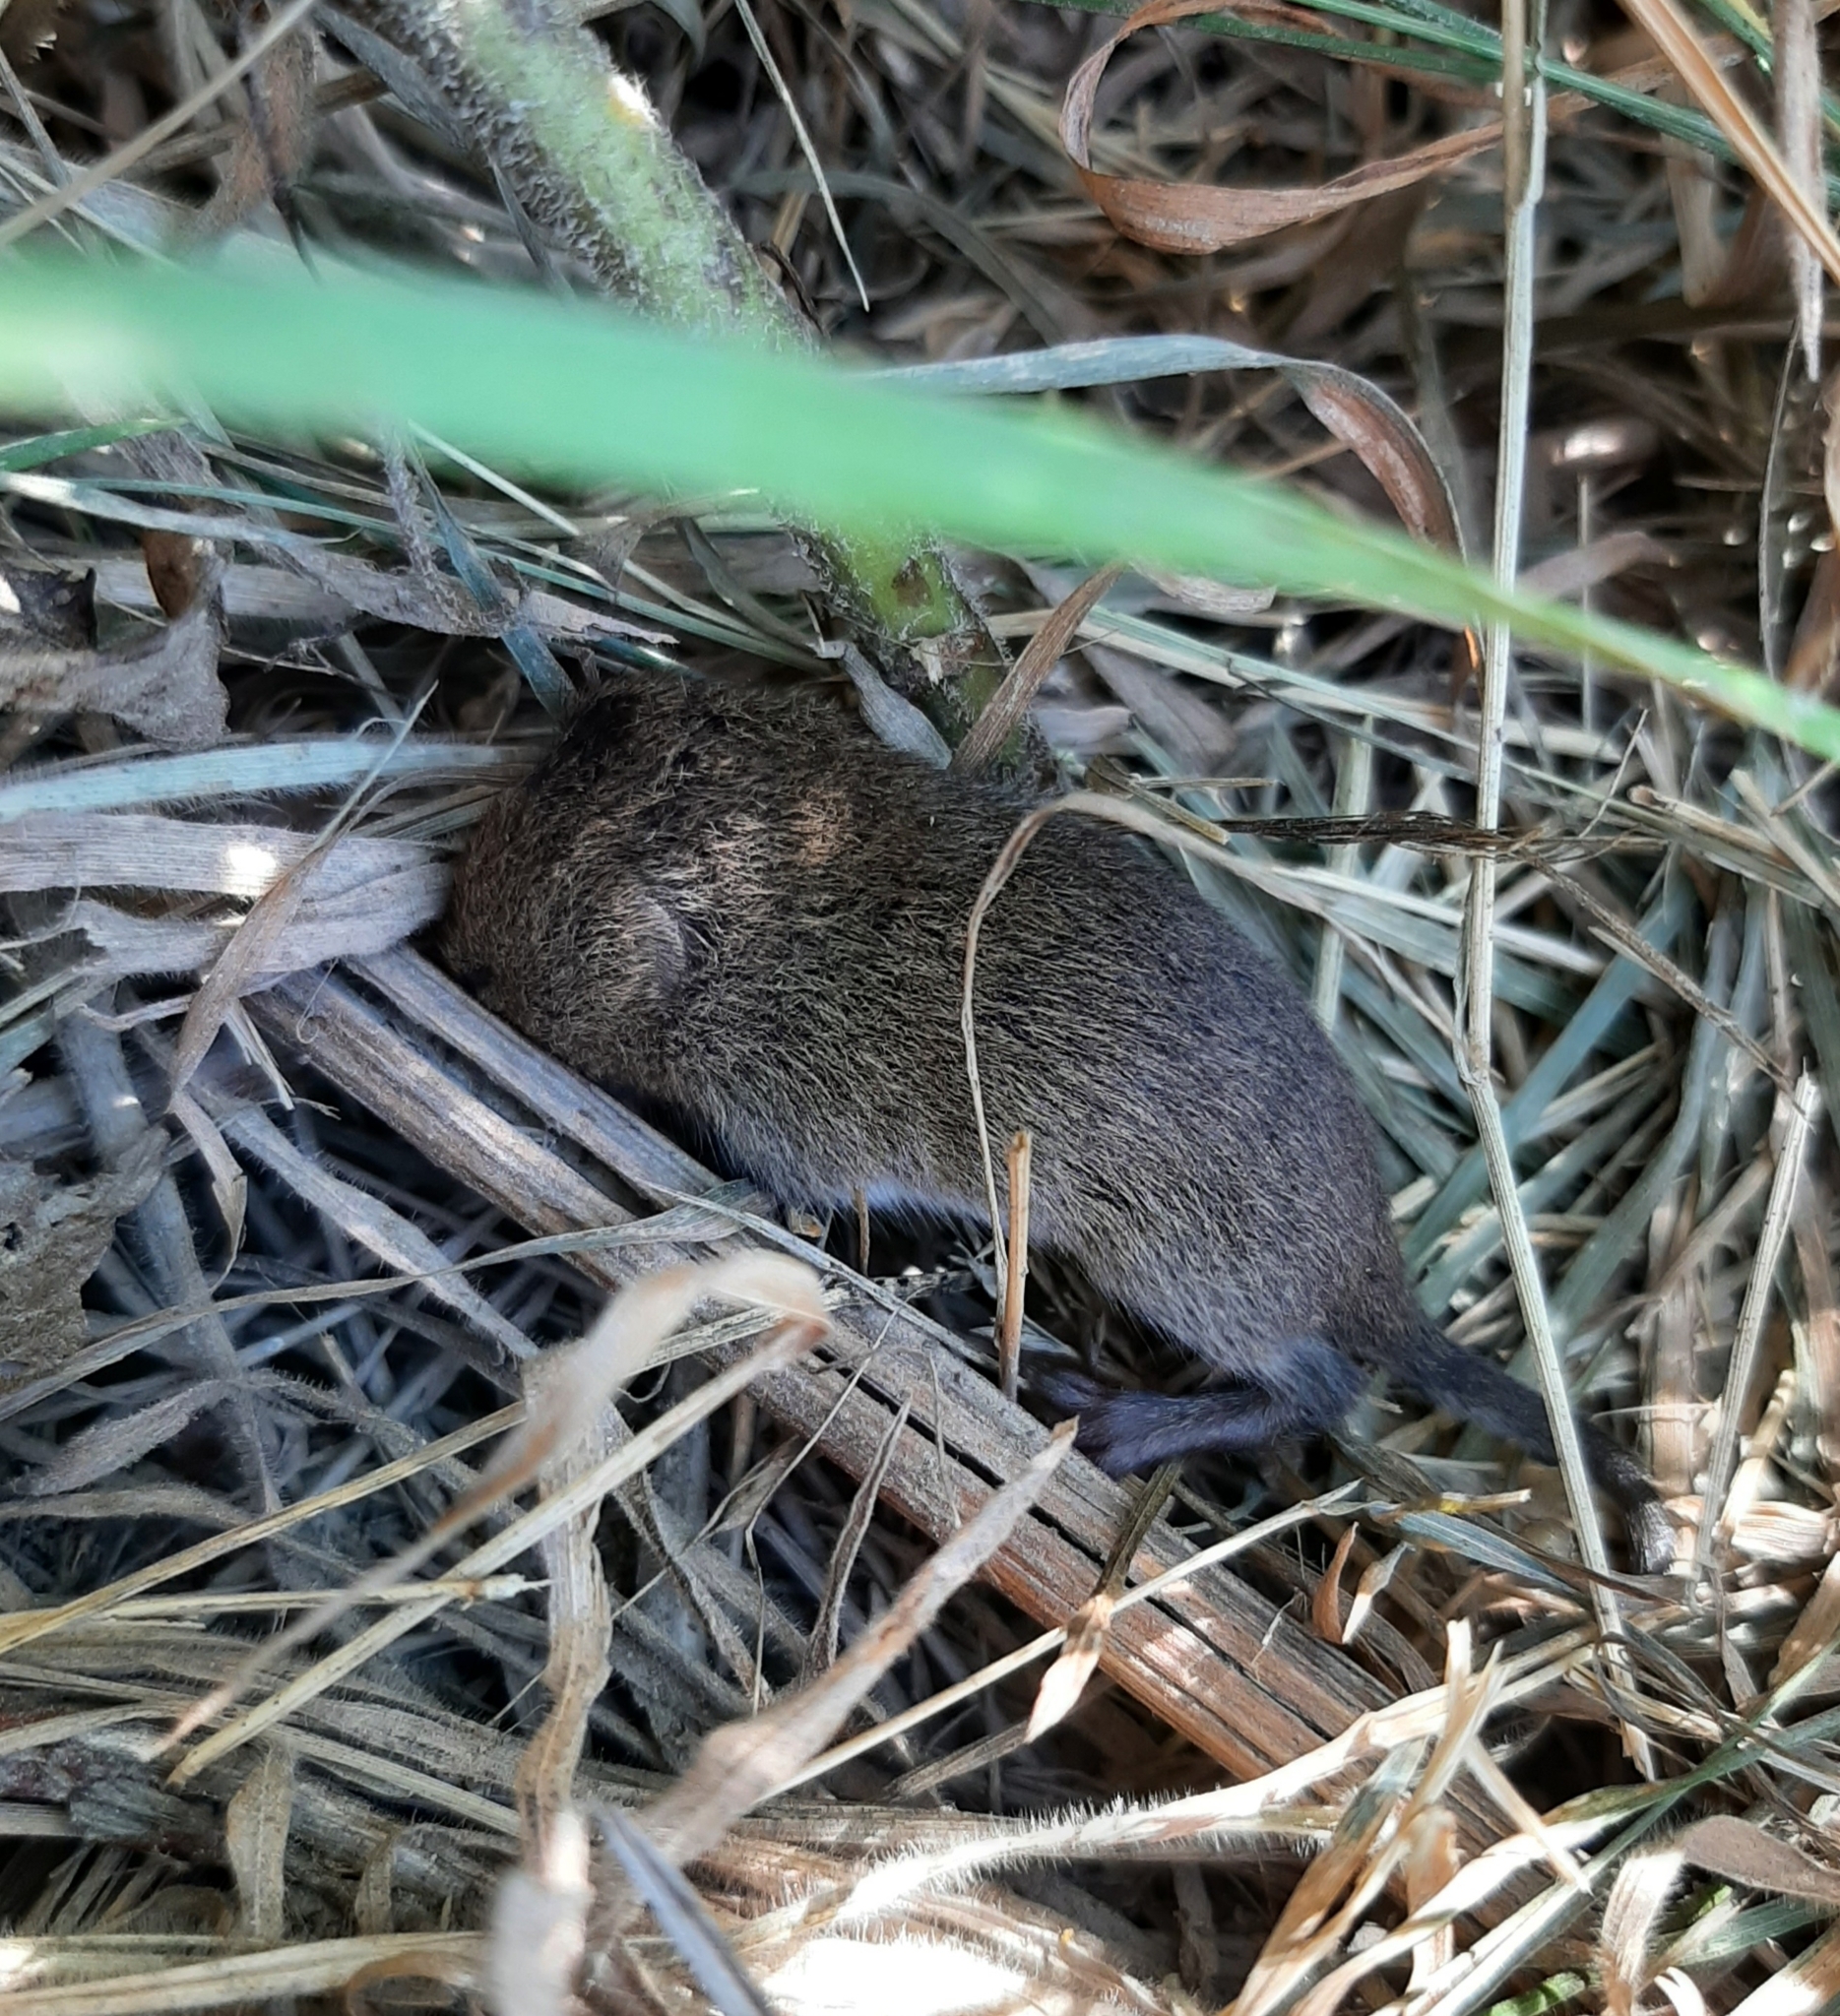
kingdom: Animalia
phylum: Chordata
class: Mammalia
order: Rodentia
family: Cricetidae
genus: Microtus
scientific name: Microtus pennsylvanicus
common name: Meadow vole
